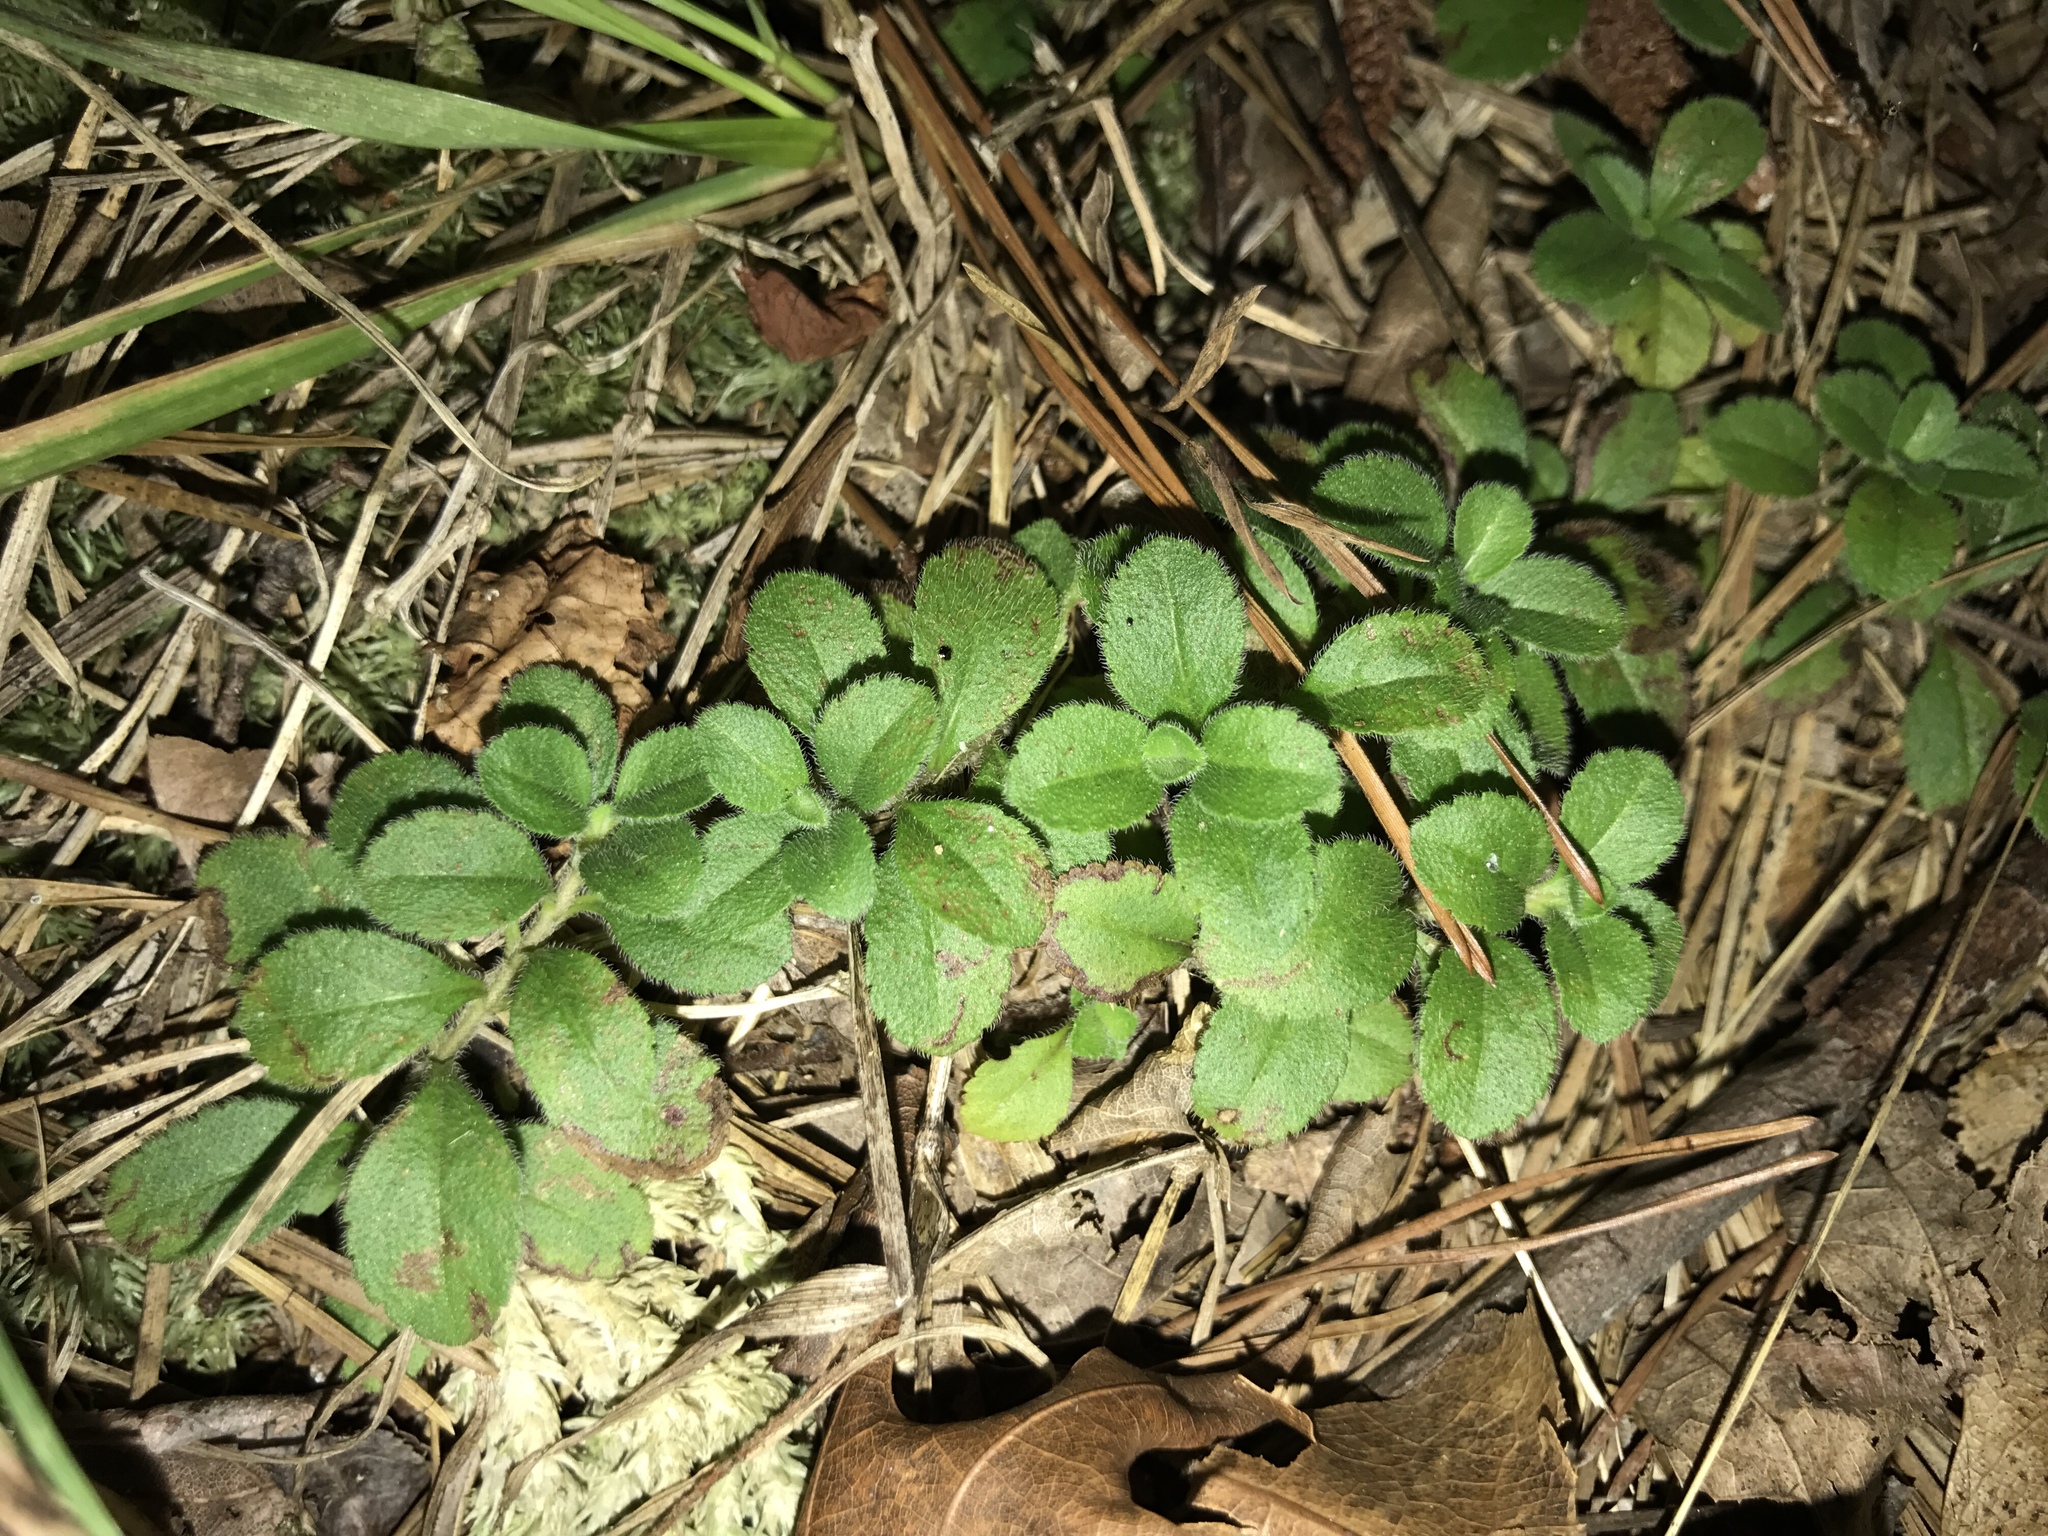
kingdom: Plantae
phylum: Tracheophyta
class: Magnoliopsida
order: Lamiales
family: Plantaginaceae
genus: Veronica
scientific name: Veronica officinalis
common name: Common speedwell
